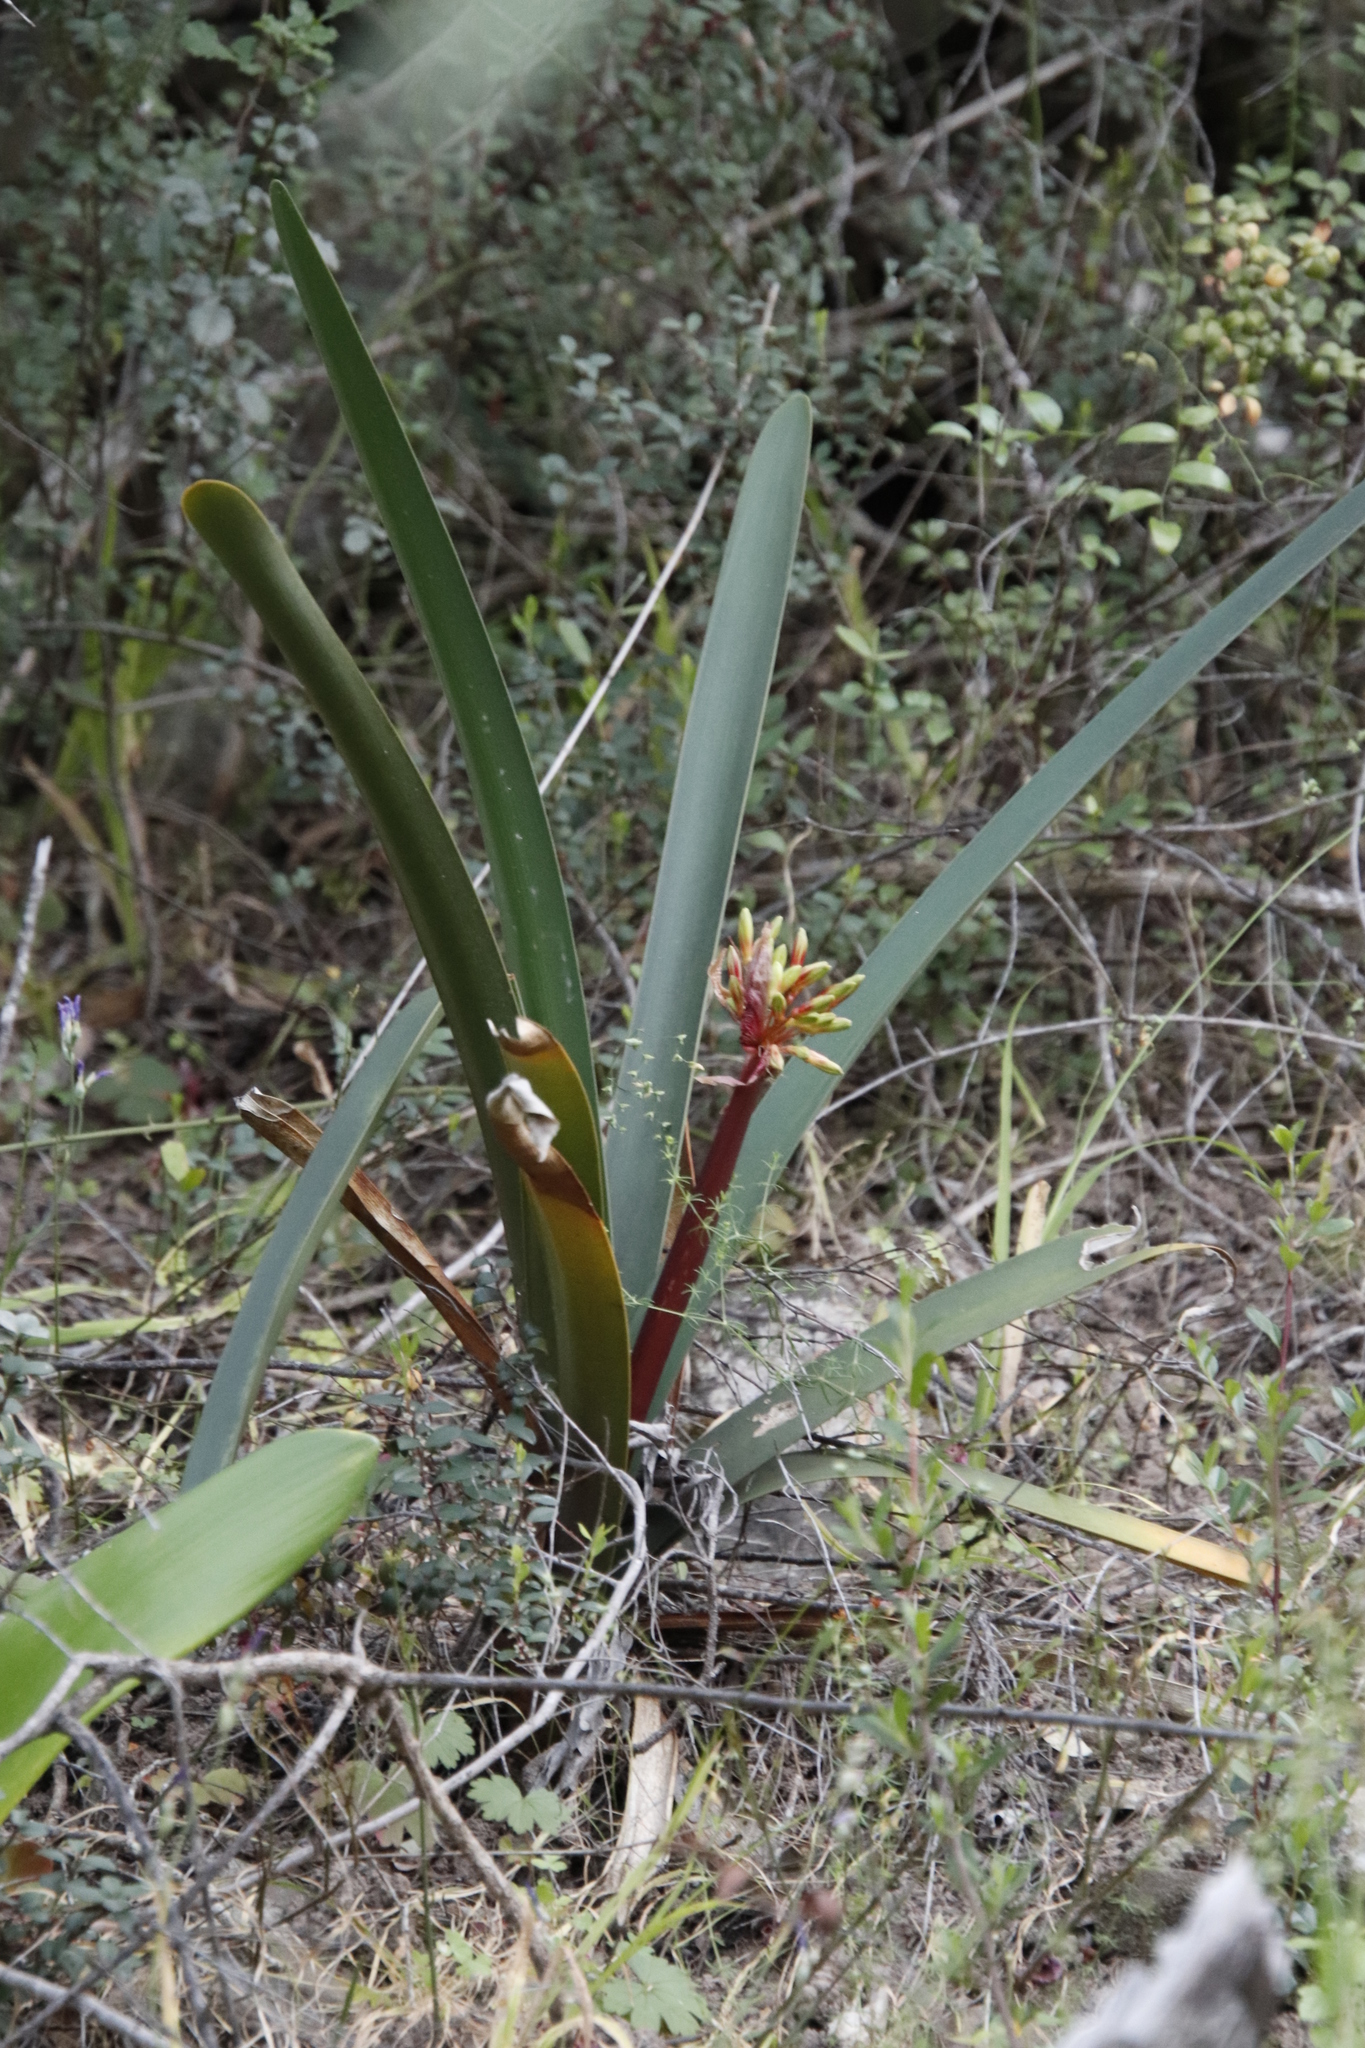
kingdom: Plantae
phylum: Tracheophyta
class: Liliopsida
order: Asparagales
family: Amaryllidaceae
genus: Clivia
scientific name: Clivia mirabilis
